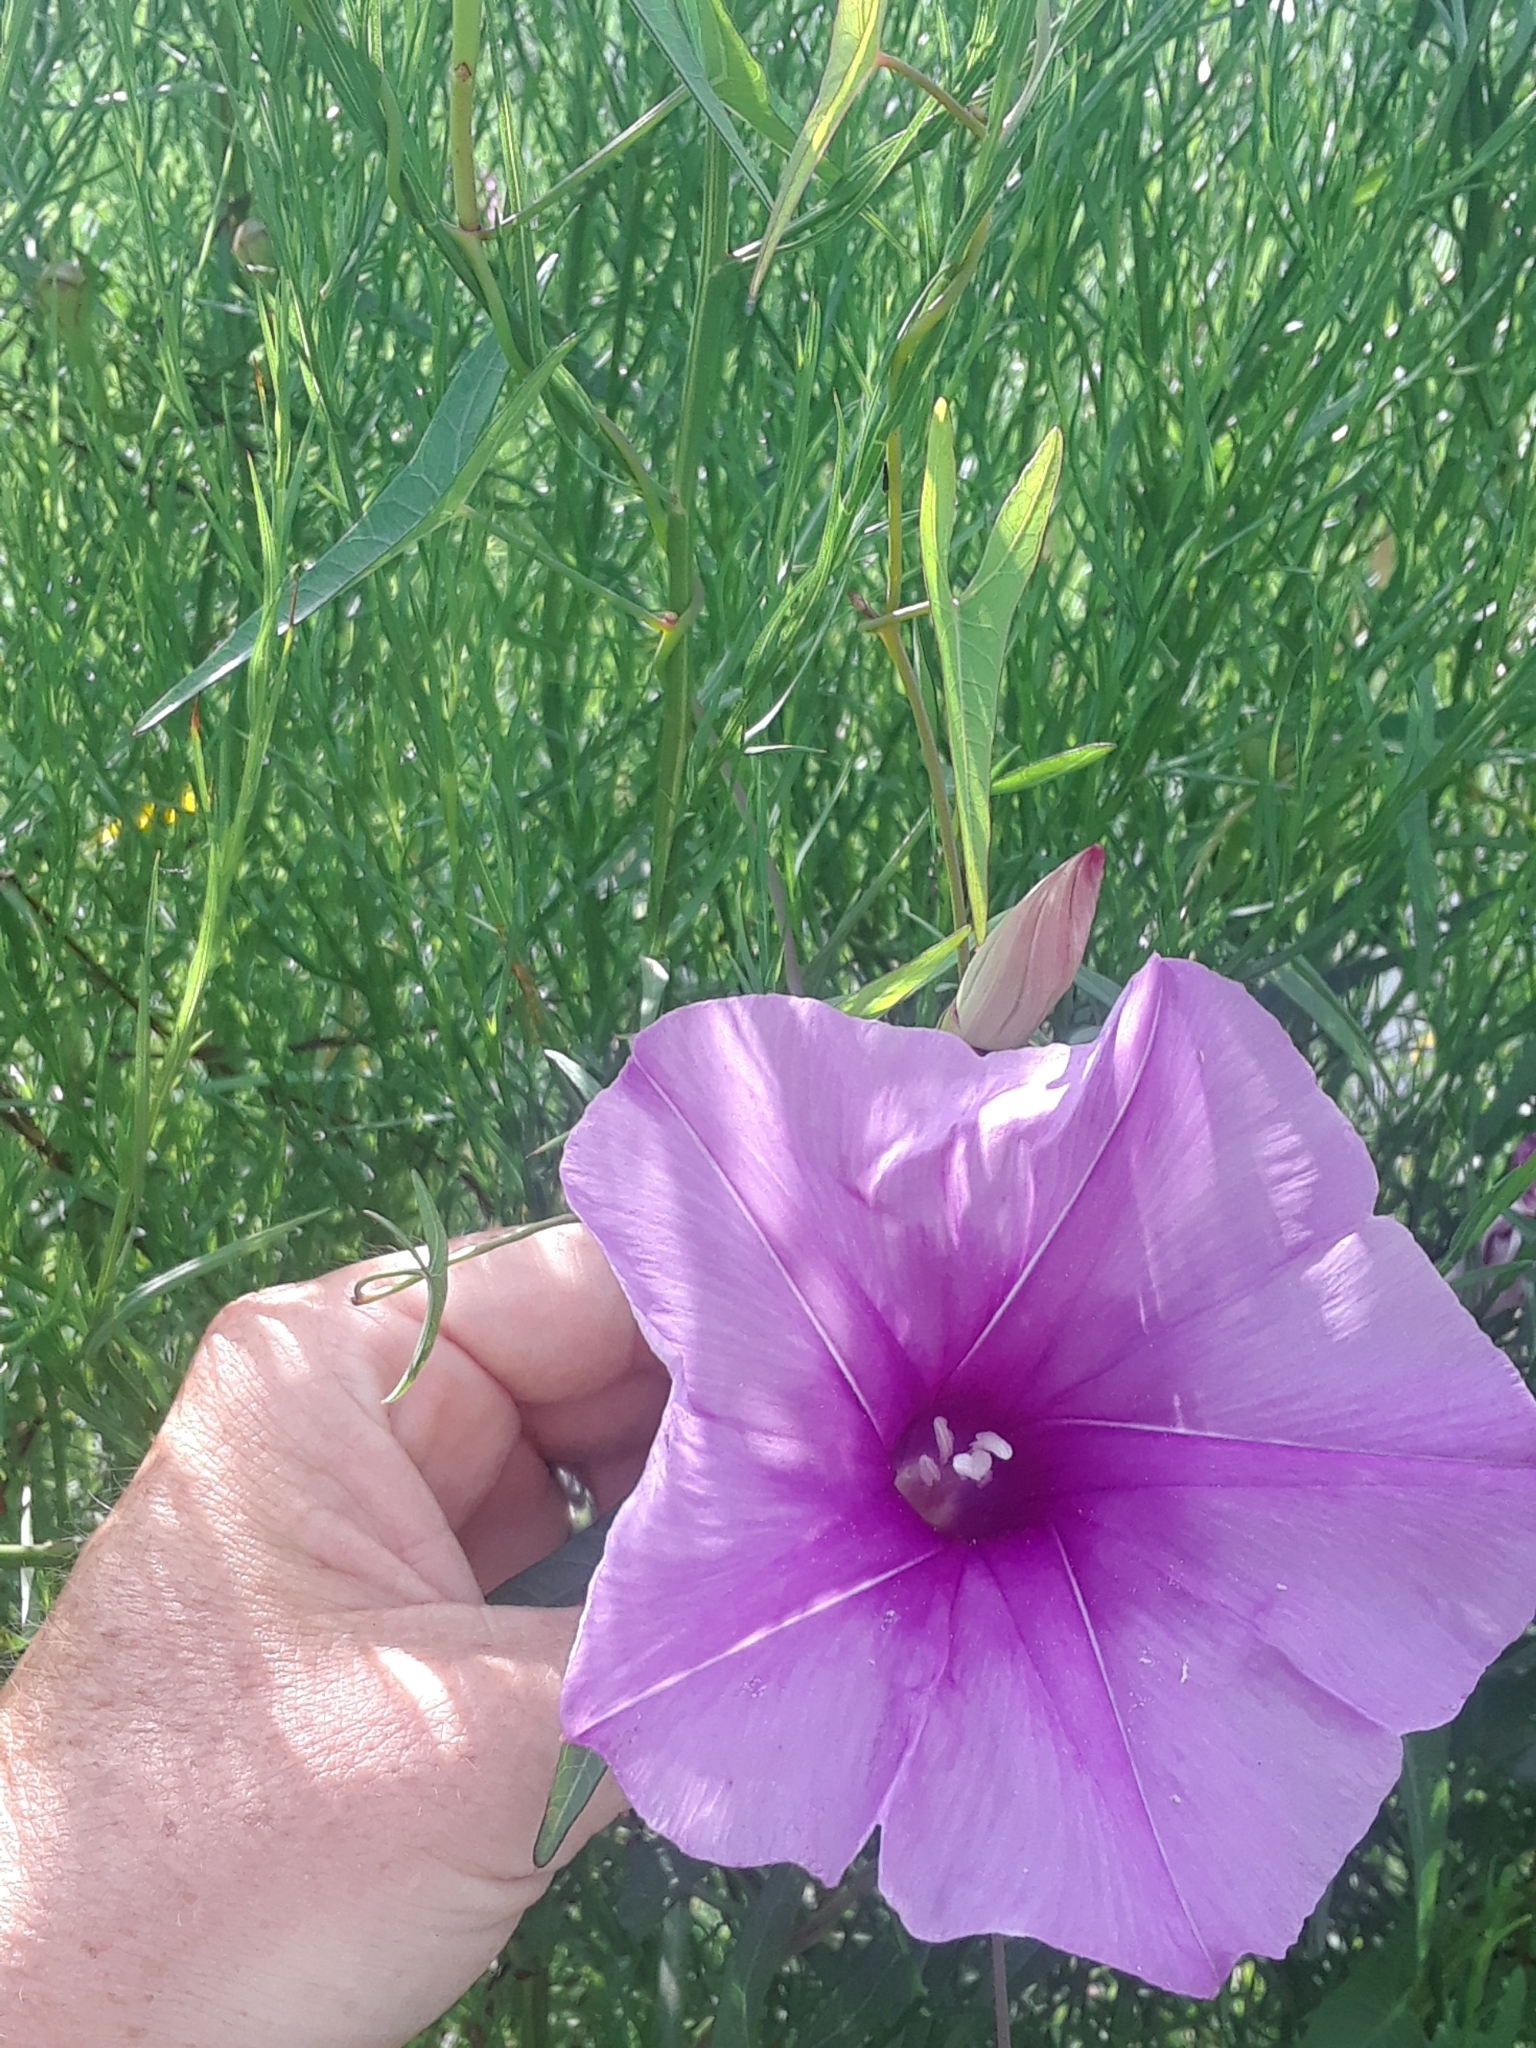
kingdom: Plantae
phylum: Tracheophyta
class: Magnoliopsida
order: Solanales
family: Convolvulaceae
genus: Ipomoea
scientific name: Ipomoea sagittata
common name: Saltmarsh morning glory
